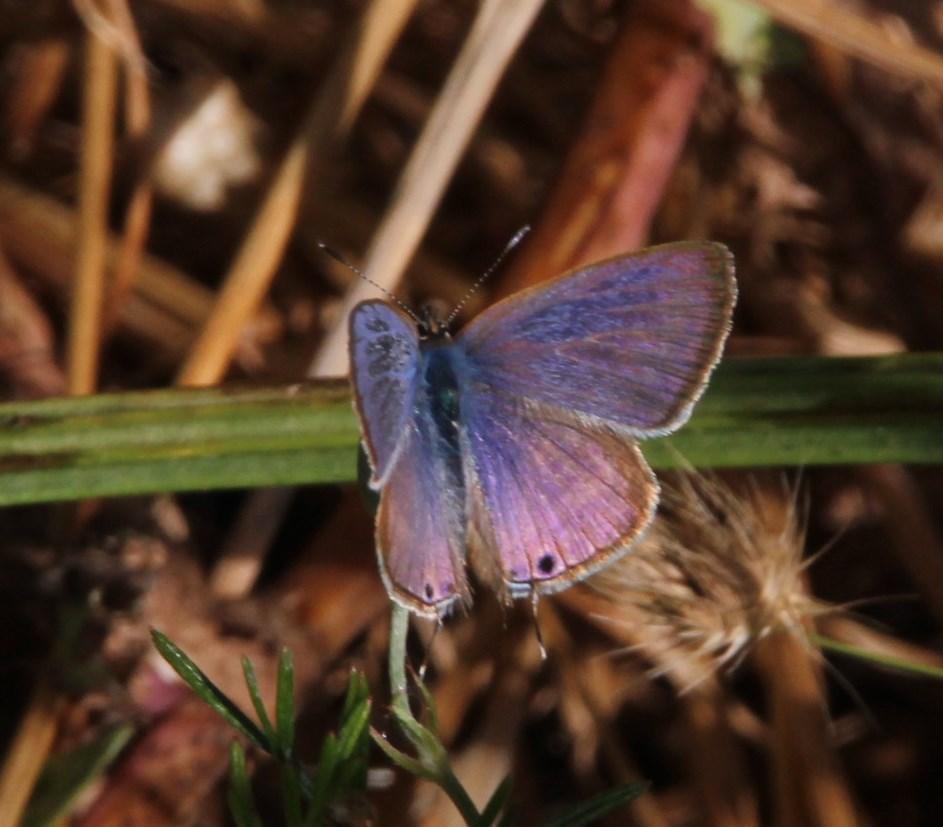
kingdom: Animalia
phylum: Arthropoda
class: Insecta
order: Lepidoptera
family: Lycaenidae
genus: Lampides
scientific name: Lampides boeticus
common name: Long-tailed blue
